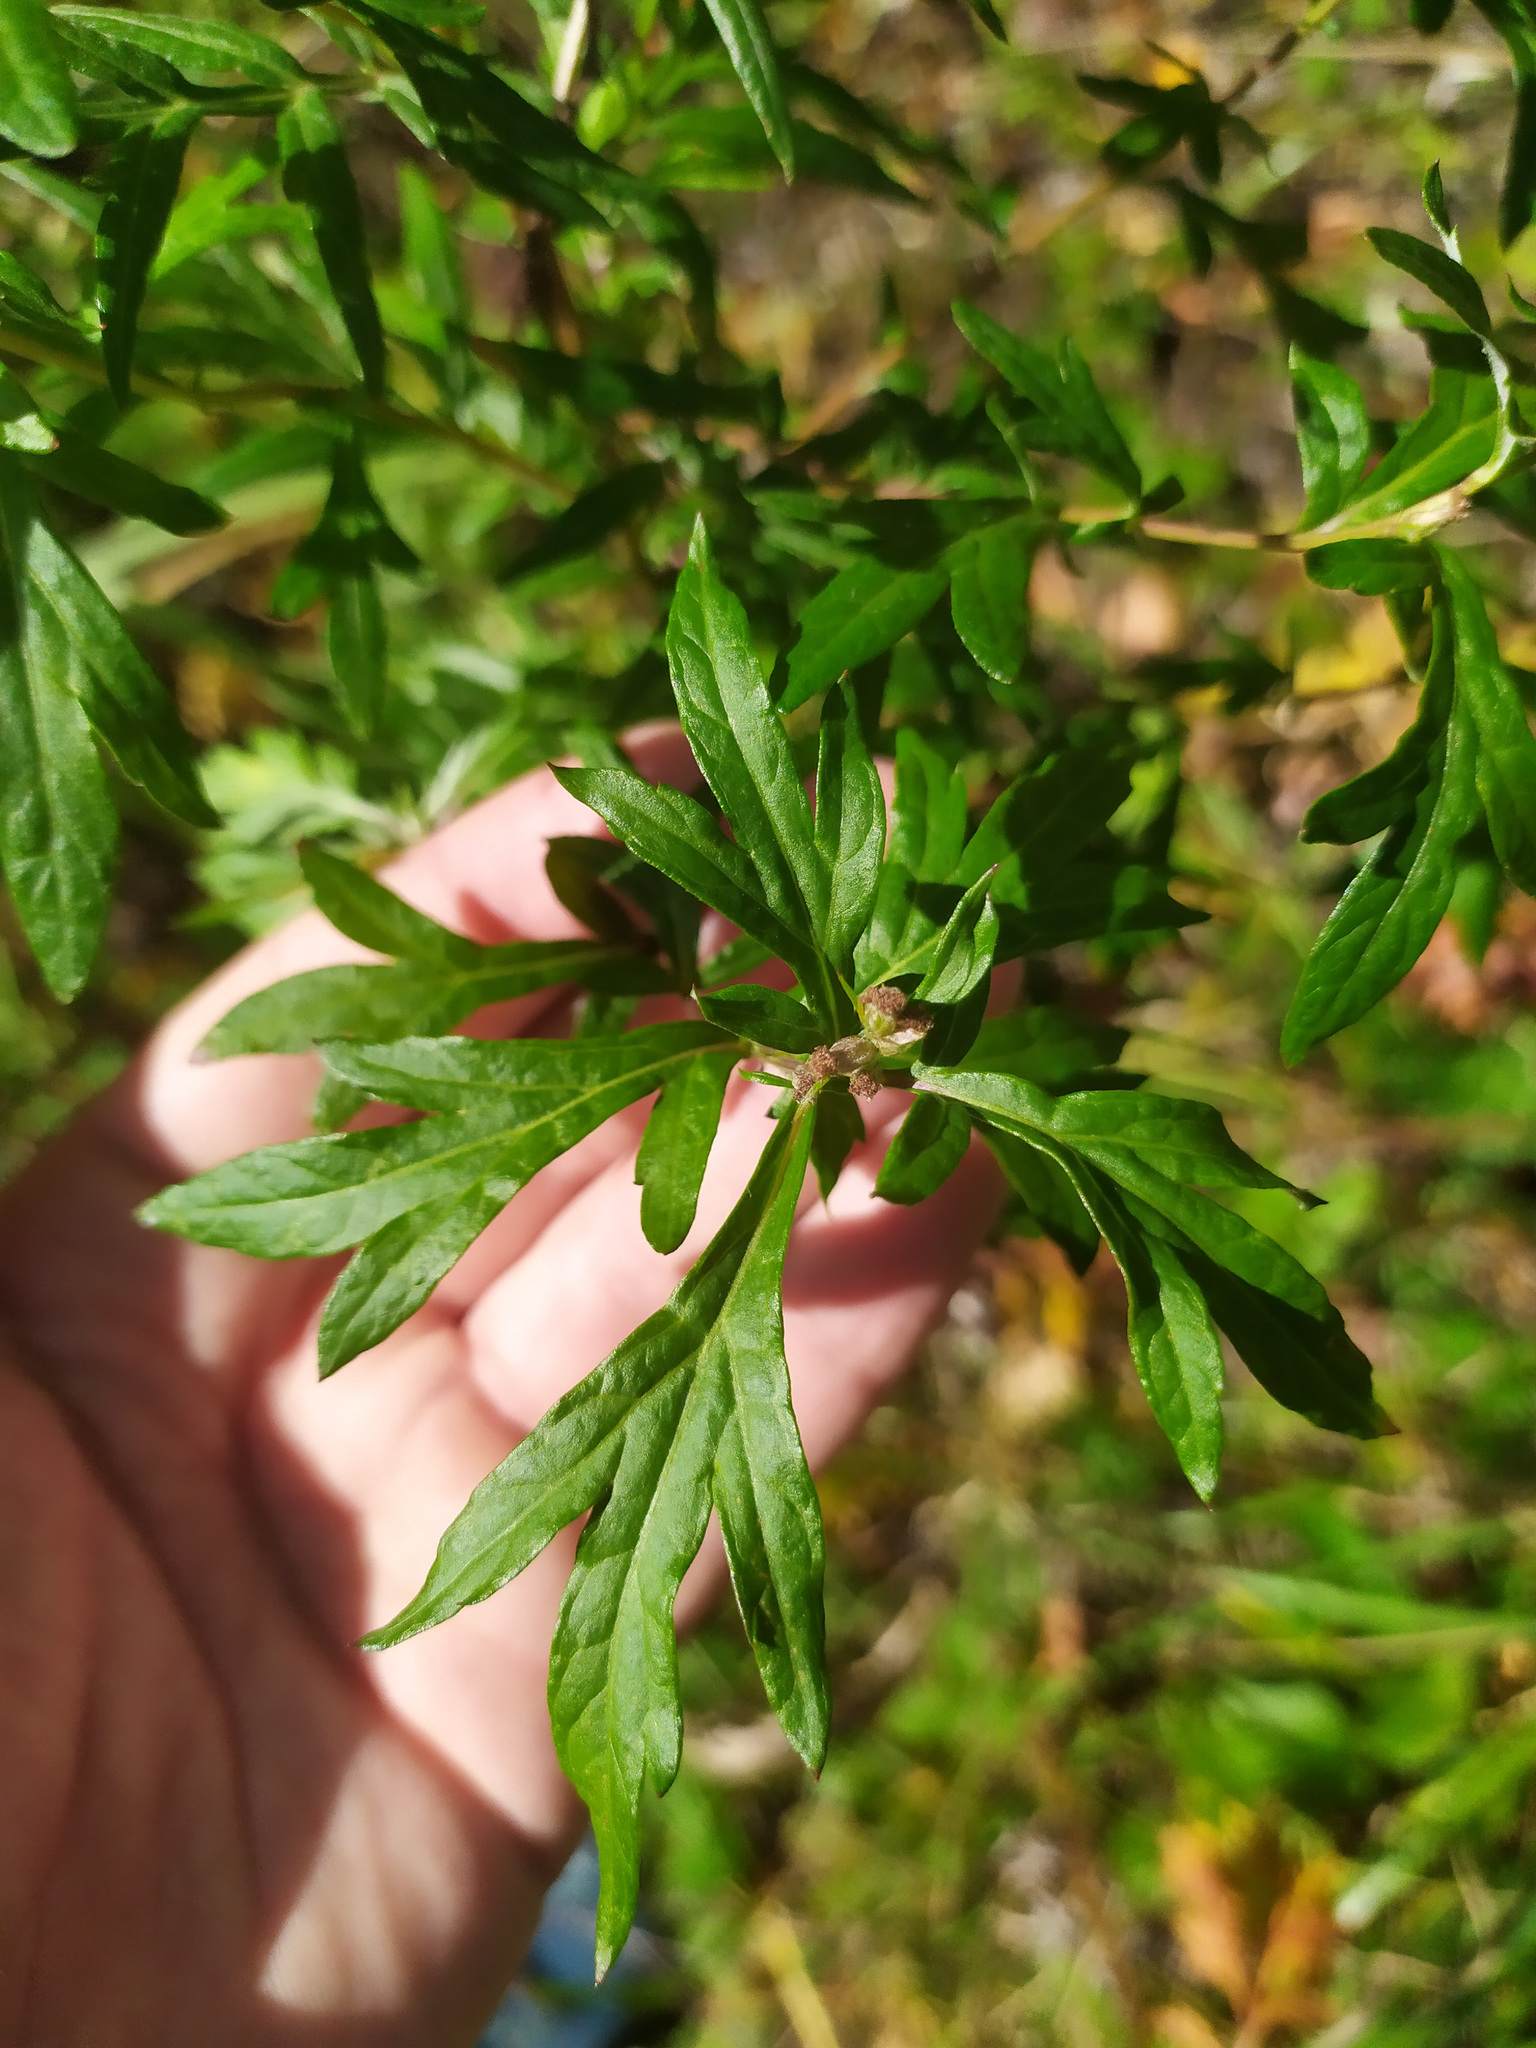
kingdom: Plantae
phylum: Tracheophyta
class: Magnoliopsida
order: Asterales
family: Asteraceae
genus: Artemisia
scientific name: Artemisia vulgaris
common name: Mugwort
